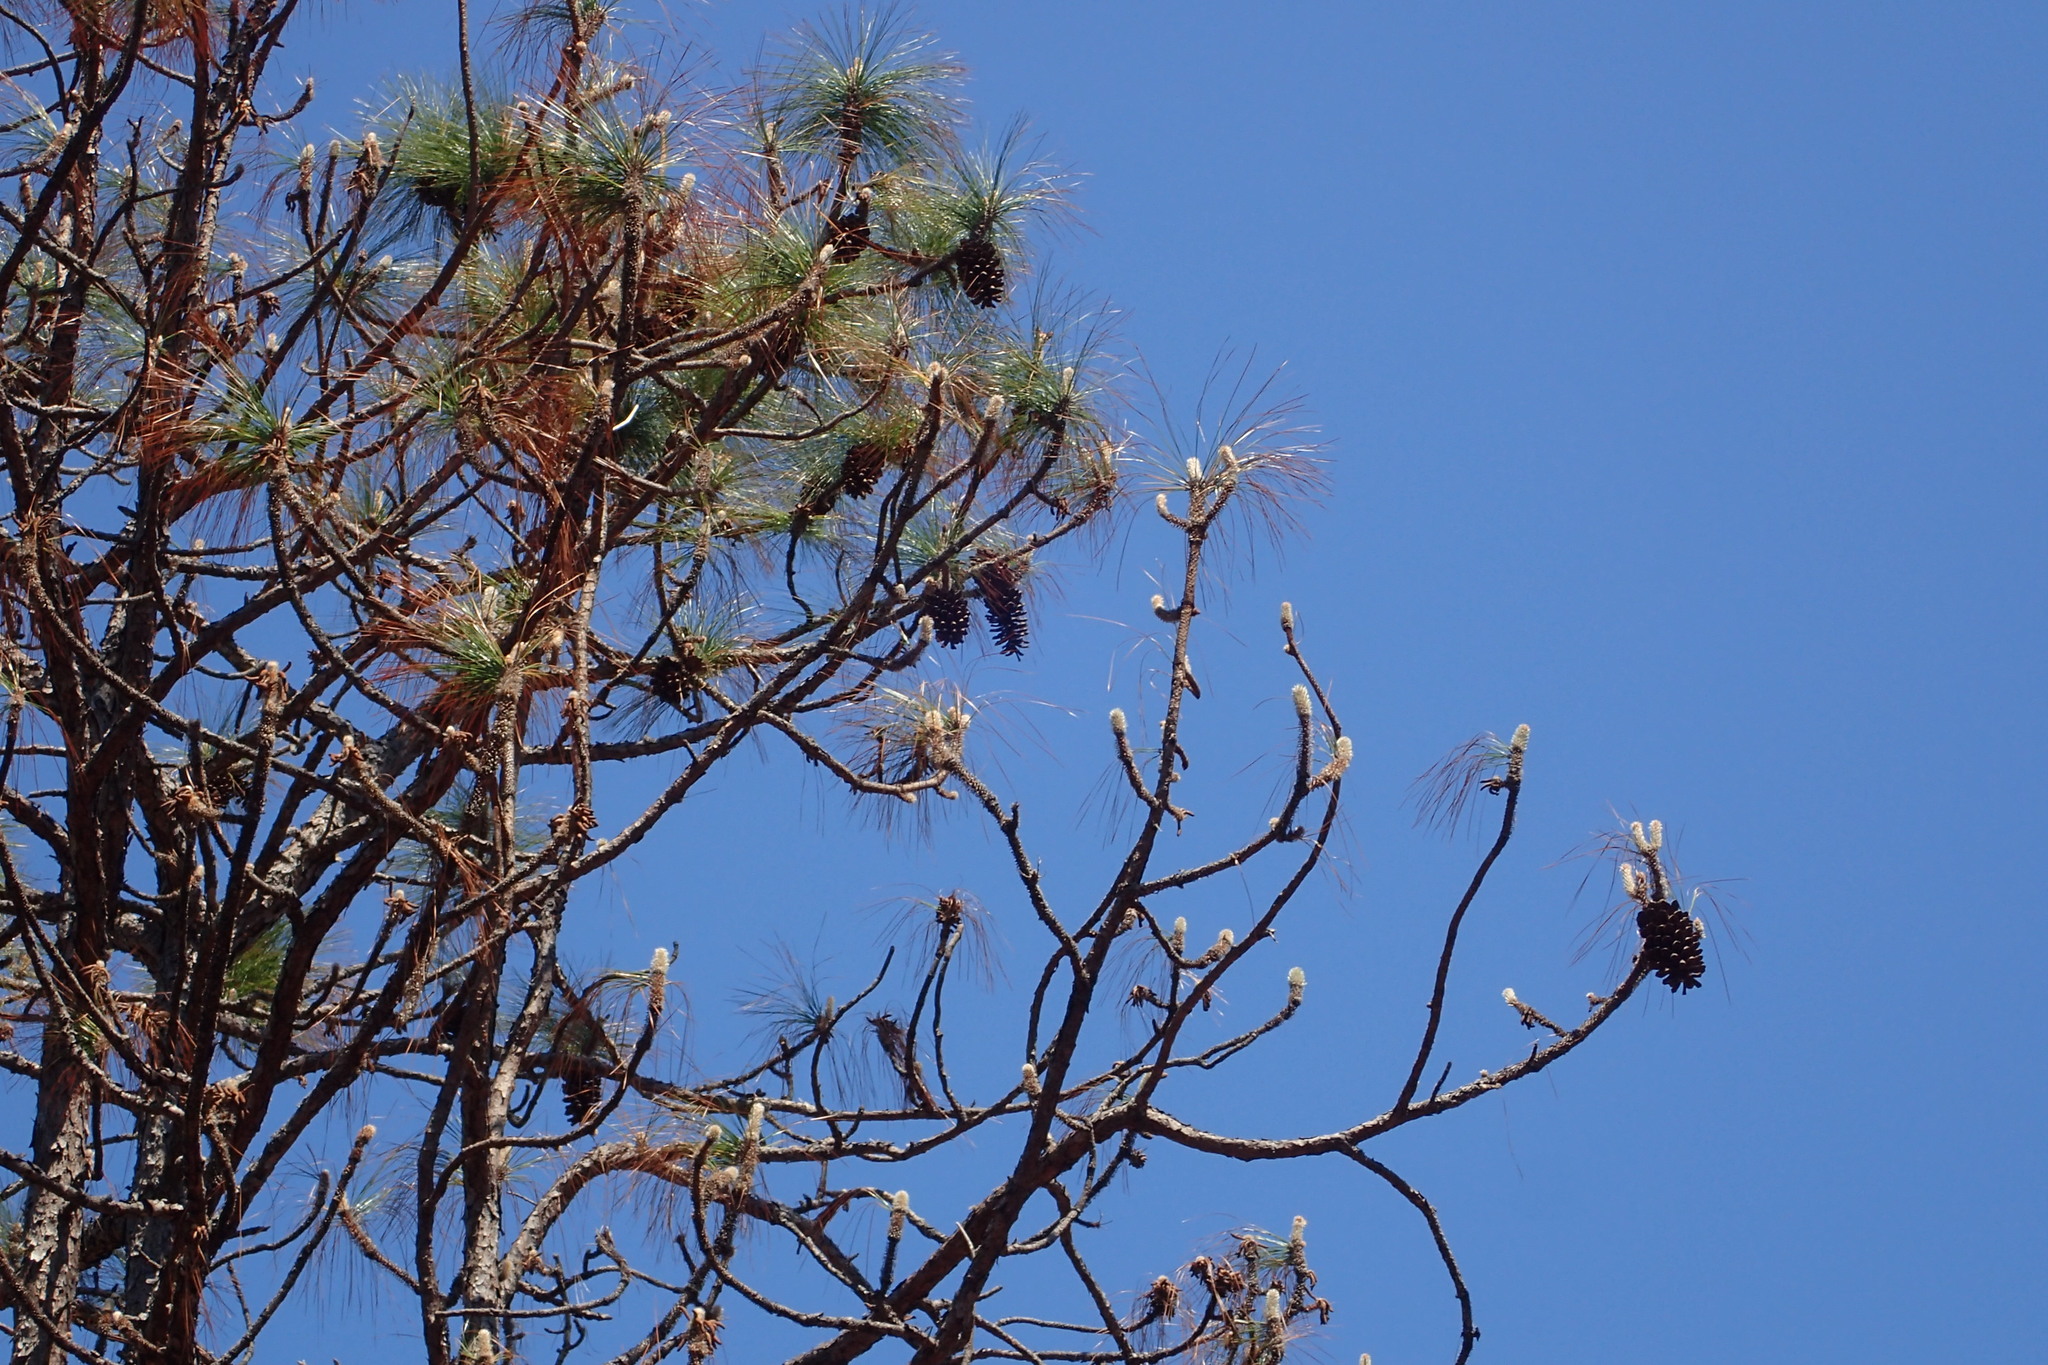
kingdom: Plantae
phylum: Tracheophyta
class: Pinopsida
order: Pinales
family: Pinaceae
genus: Pinus
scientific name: Pinus palustris
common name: Longleaf pine
